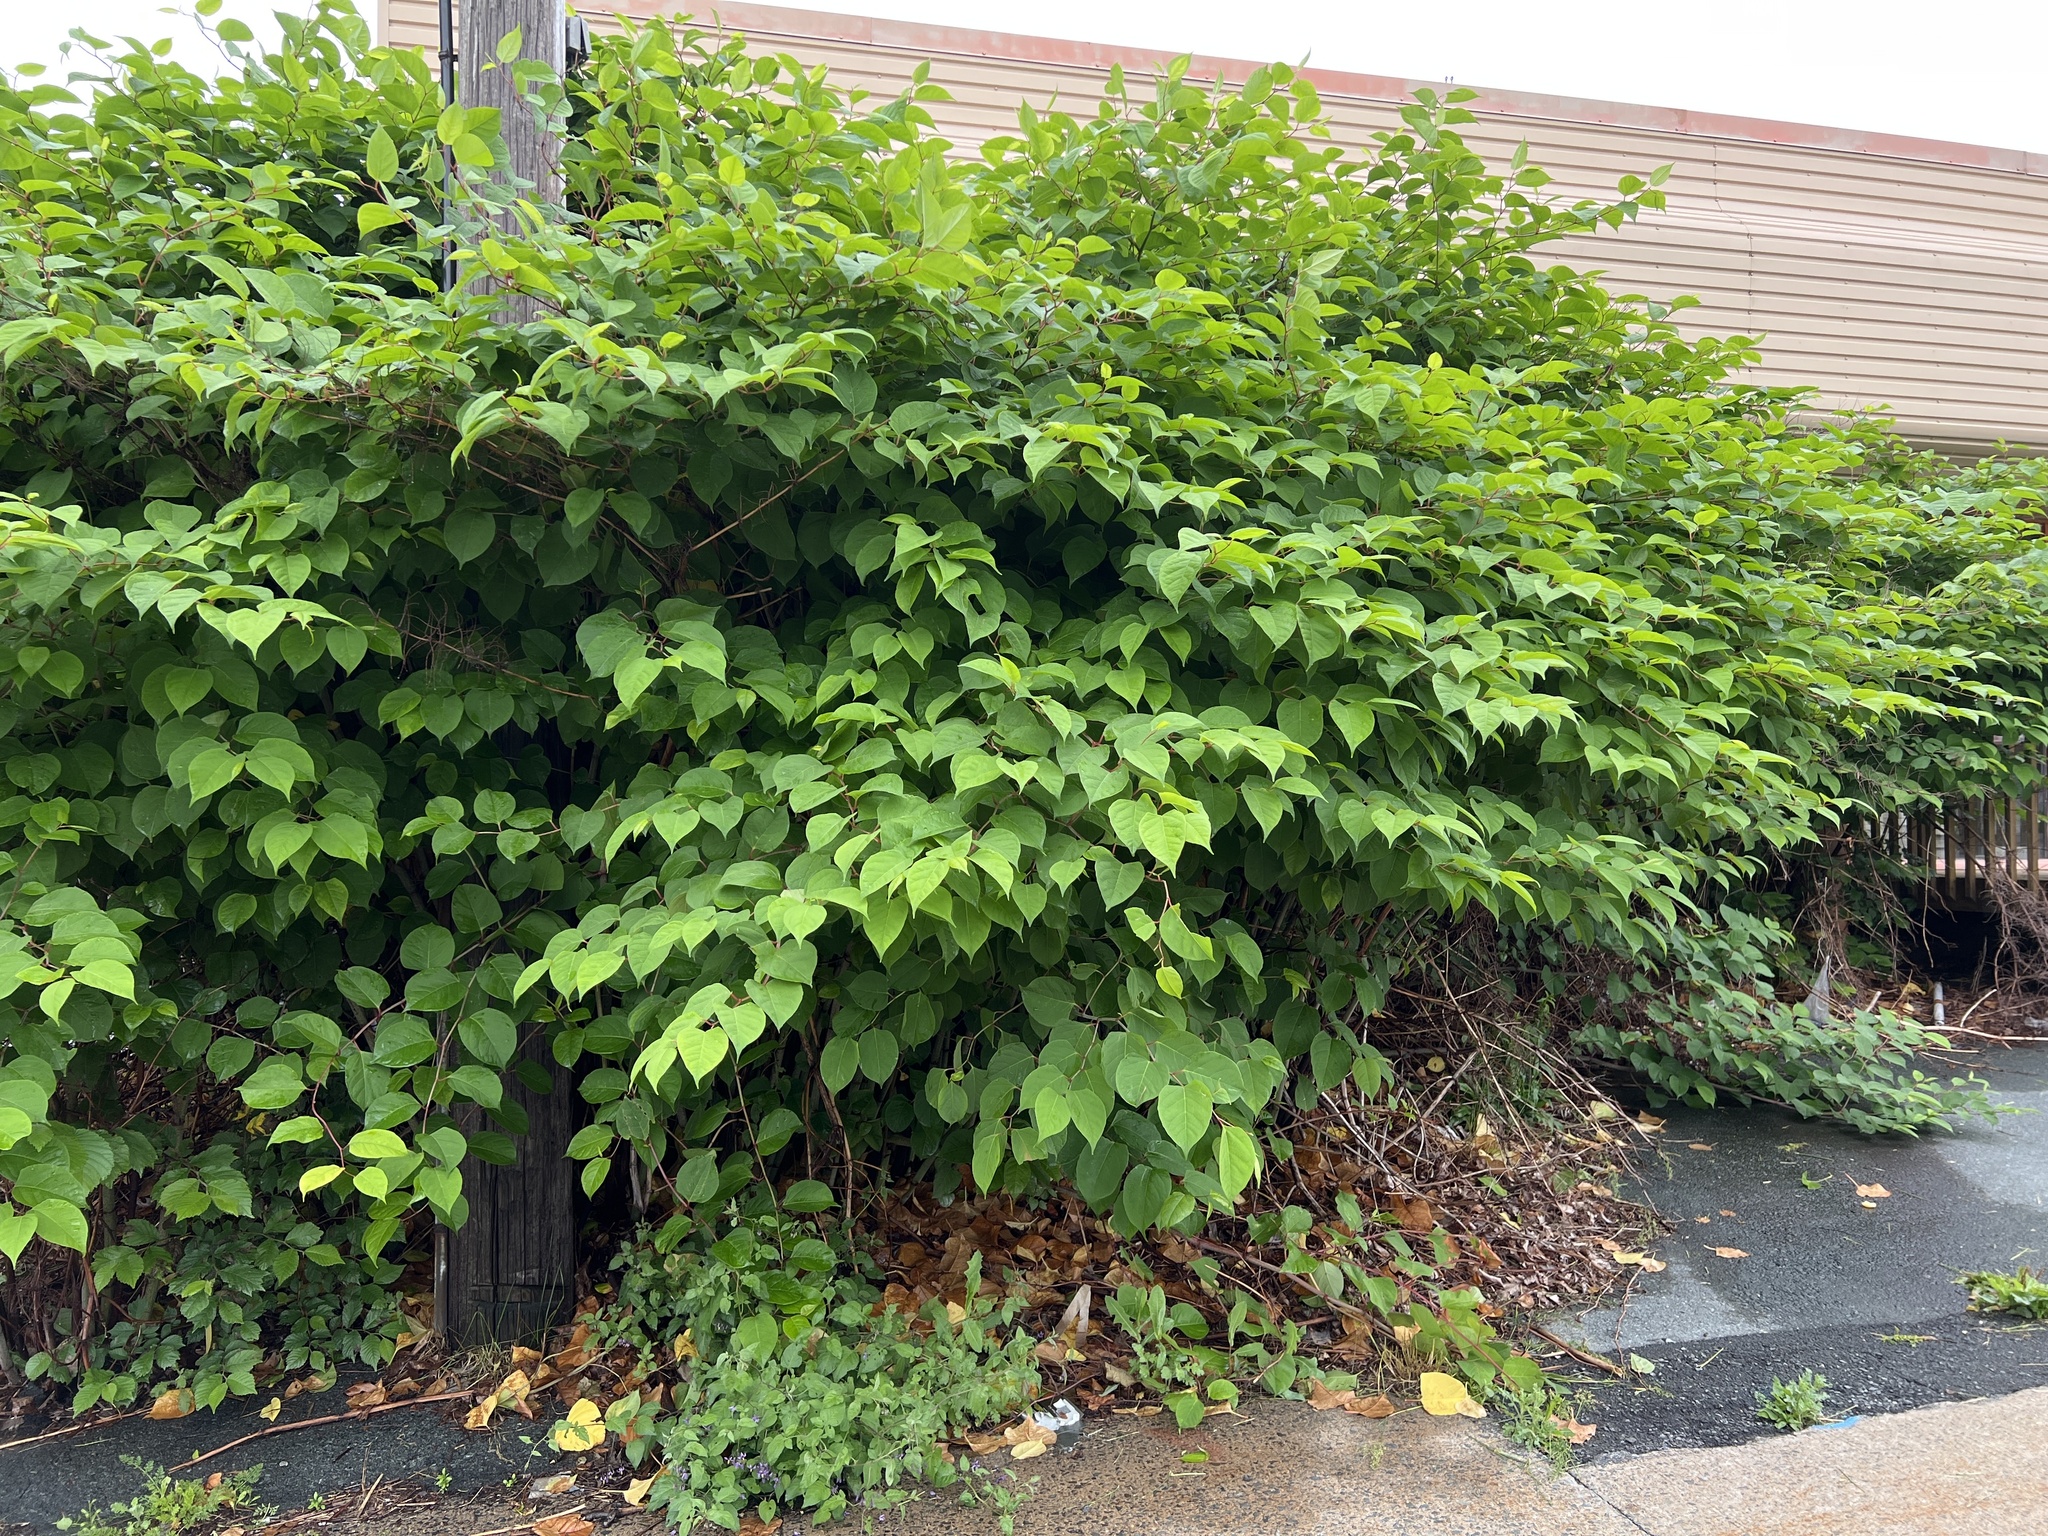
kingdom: Plantae
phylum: Tracheophyta
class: Magnoliopsida
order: Caryophyllales
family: Polygonaceae
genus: Reynoutria
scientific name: Reynoutria japonica
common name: Japanese knotweed
